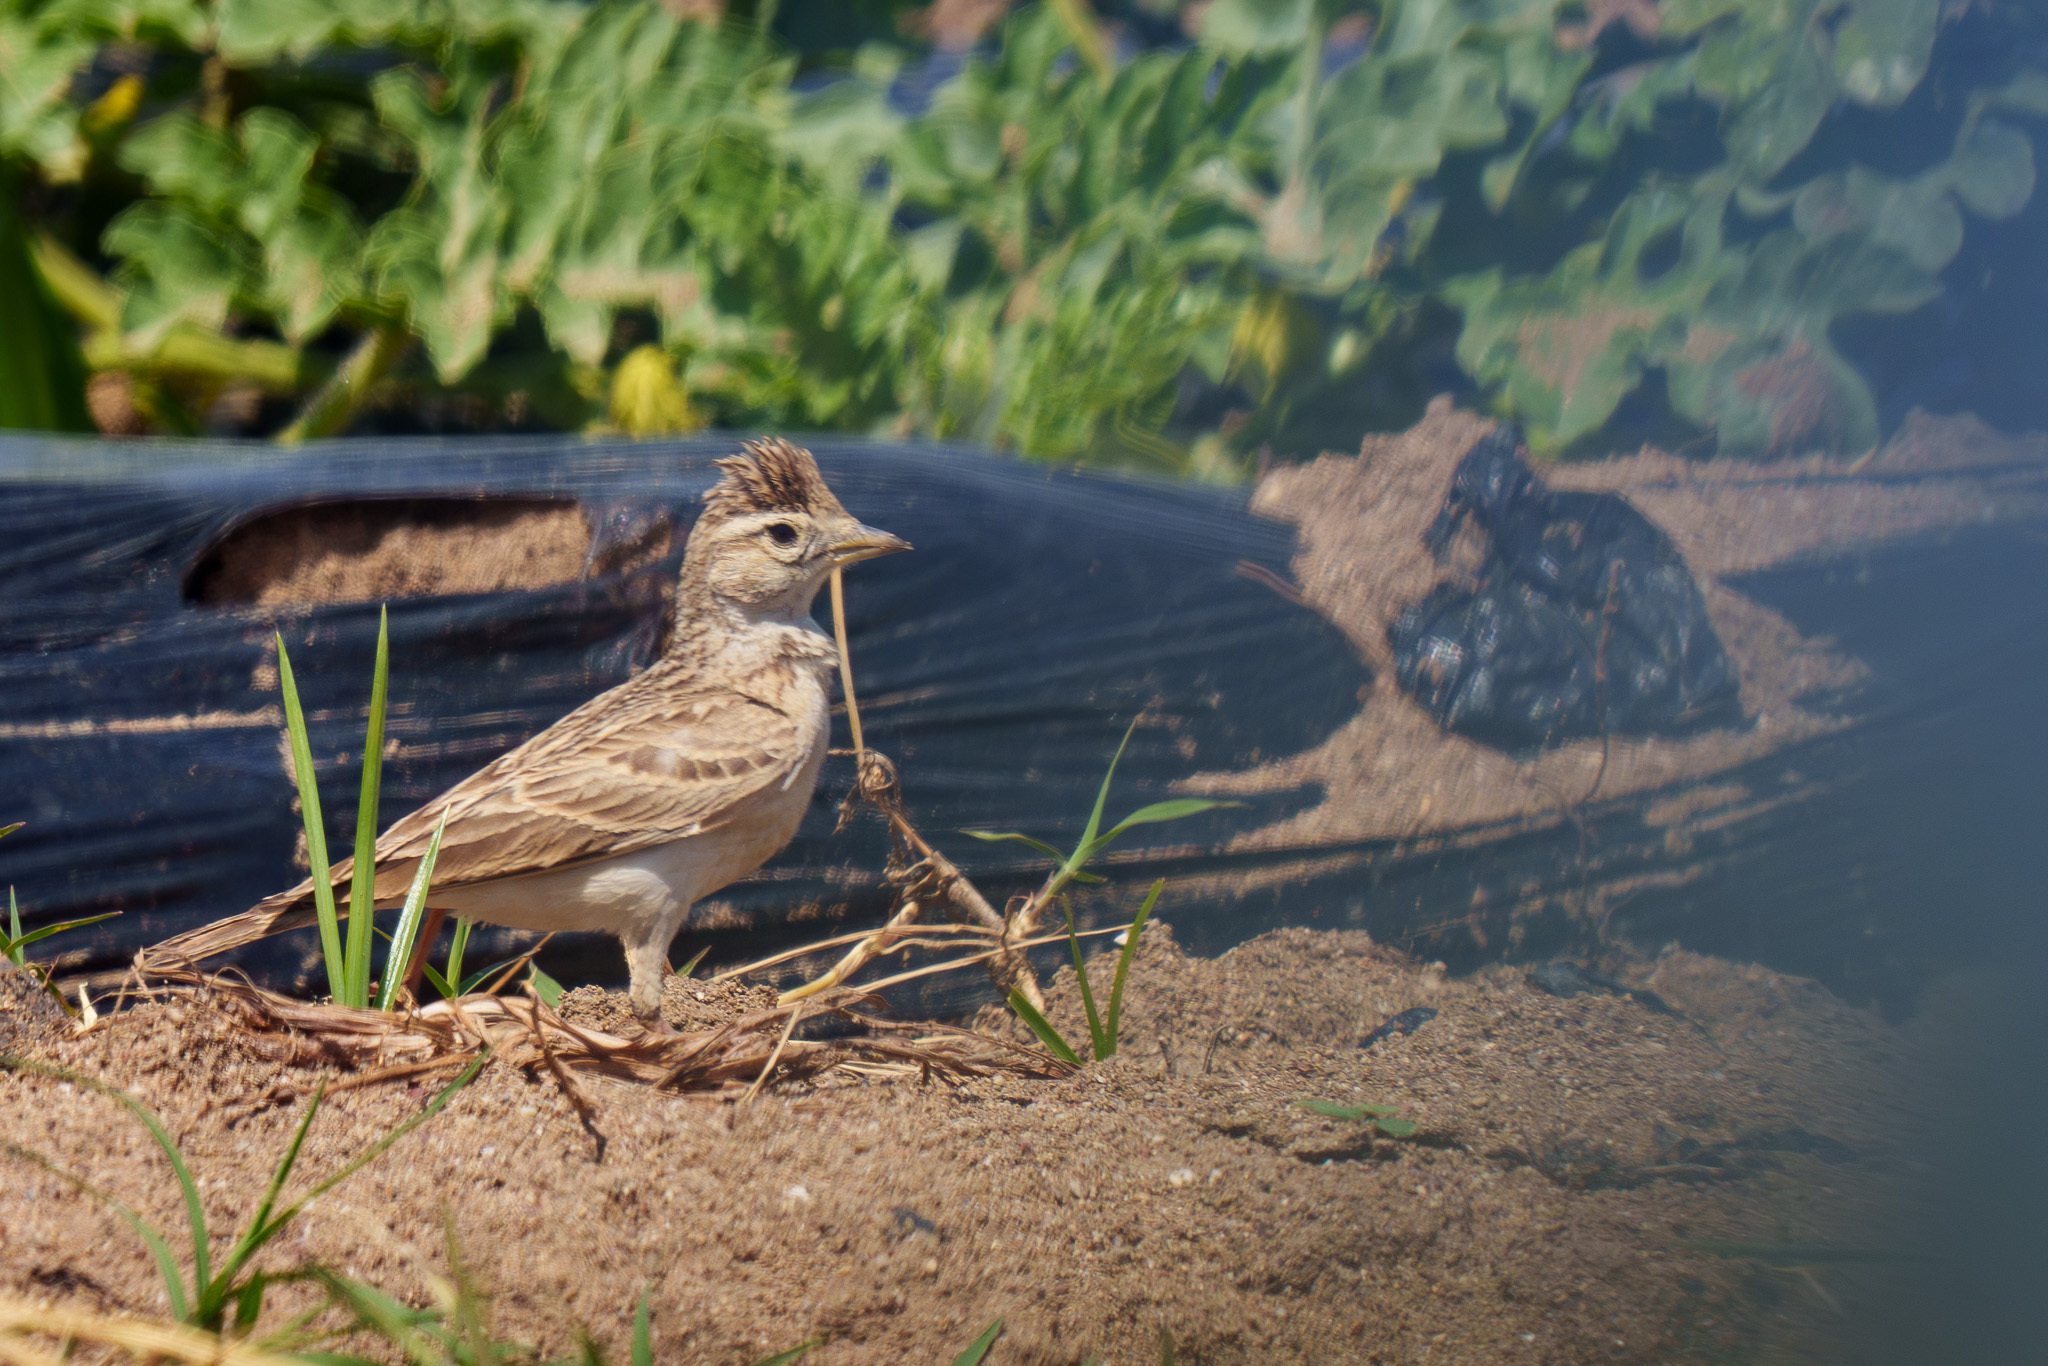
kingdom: Animalia
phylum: Chordata
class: Aves
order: Passeriformes
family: Alaudidae
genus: Galerida
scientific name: Galerida cristata
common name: Crested lark
